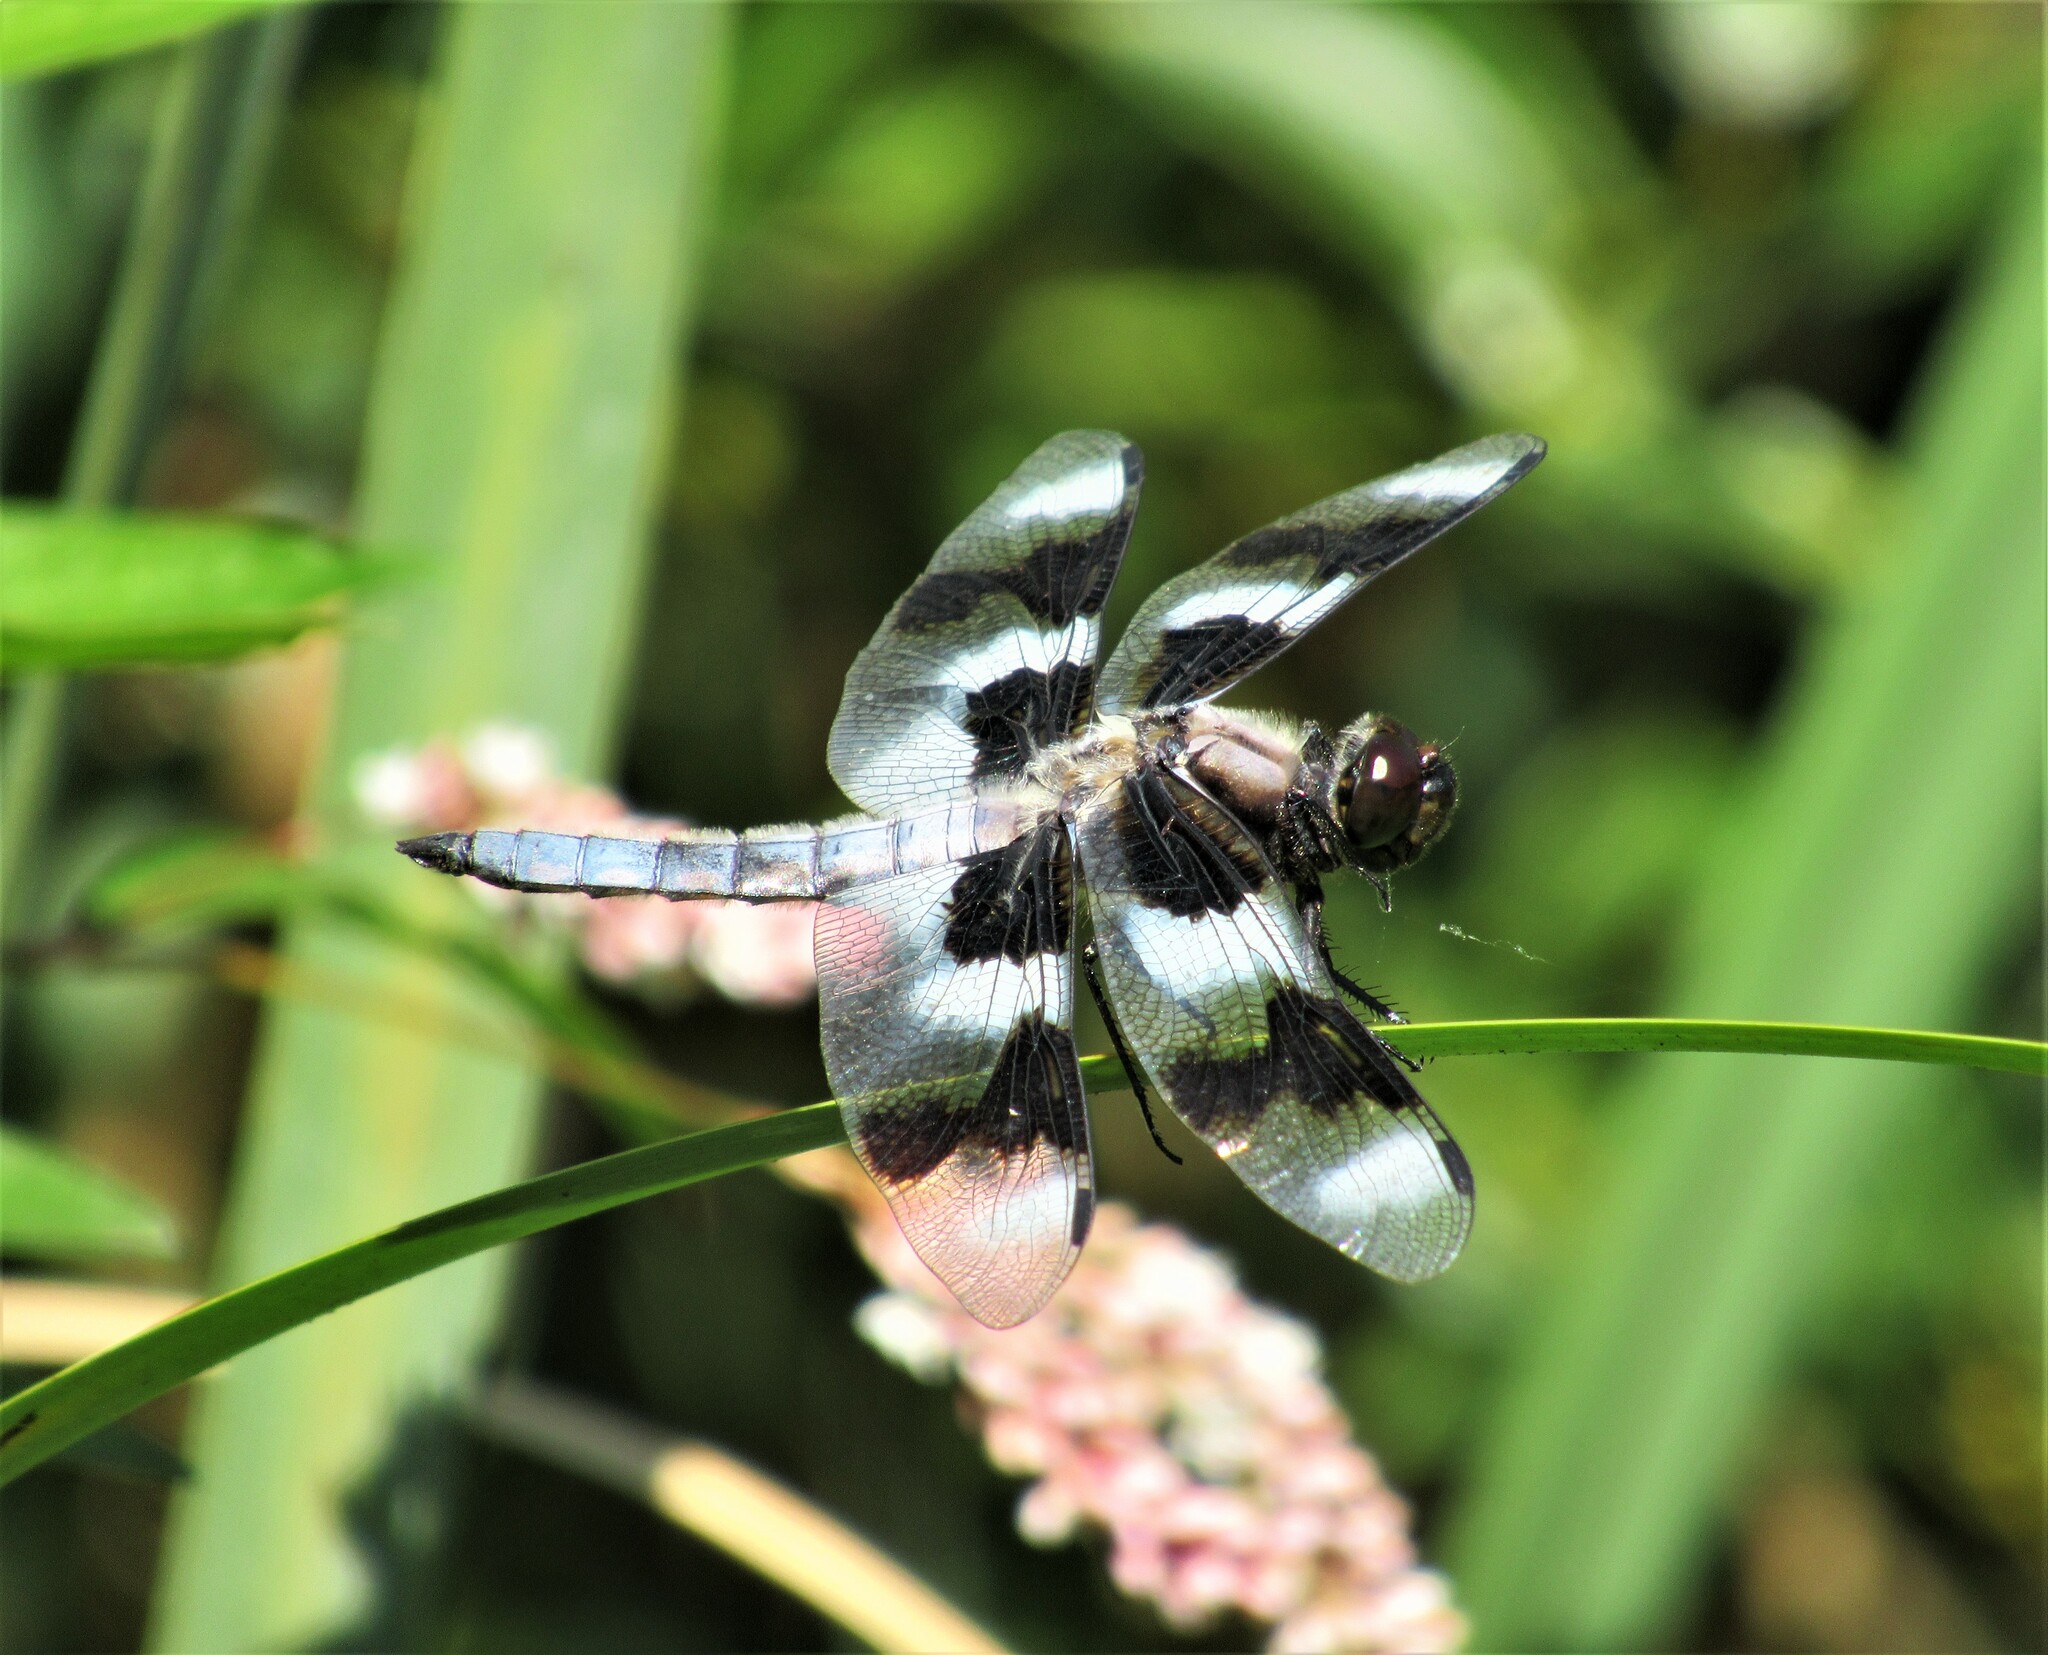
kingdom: Animalia
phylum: Arthropoda
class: Insecta
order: Odonata
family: Libellulidae
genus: Libellula
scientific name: Libellula forensis
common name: Eight-spotted skimmer
